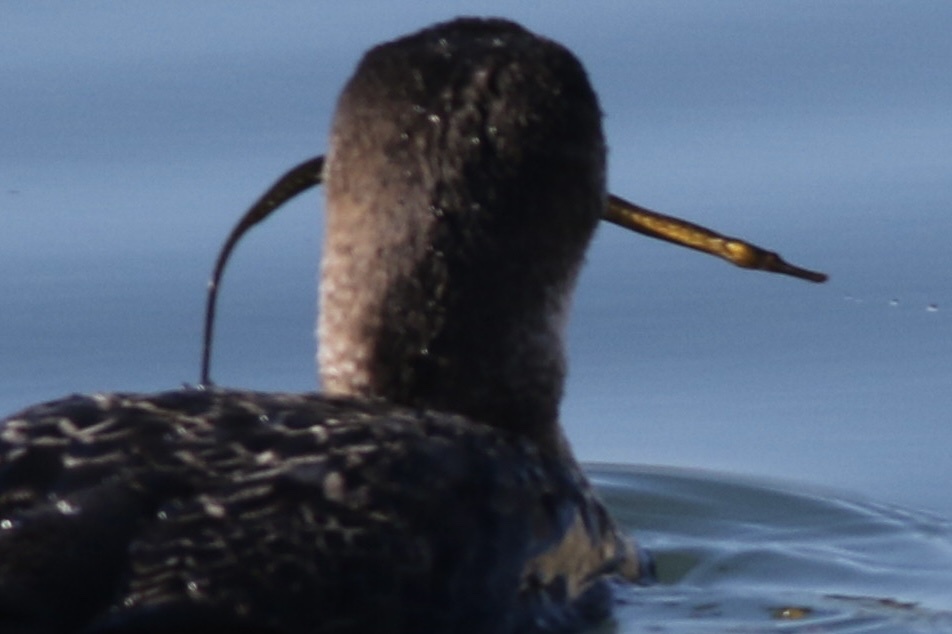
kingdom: Animalia
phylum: Chordata
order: Syngnathiformes
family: Syngnathidae
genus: Syngnathus
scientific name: Syngnathus californiensis
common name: Great pipefish
